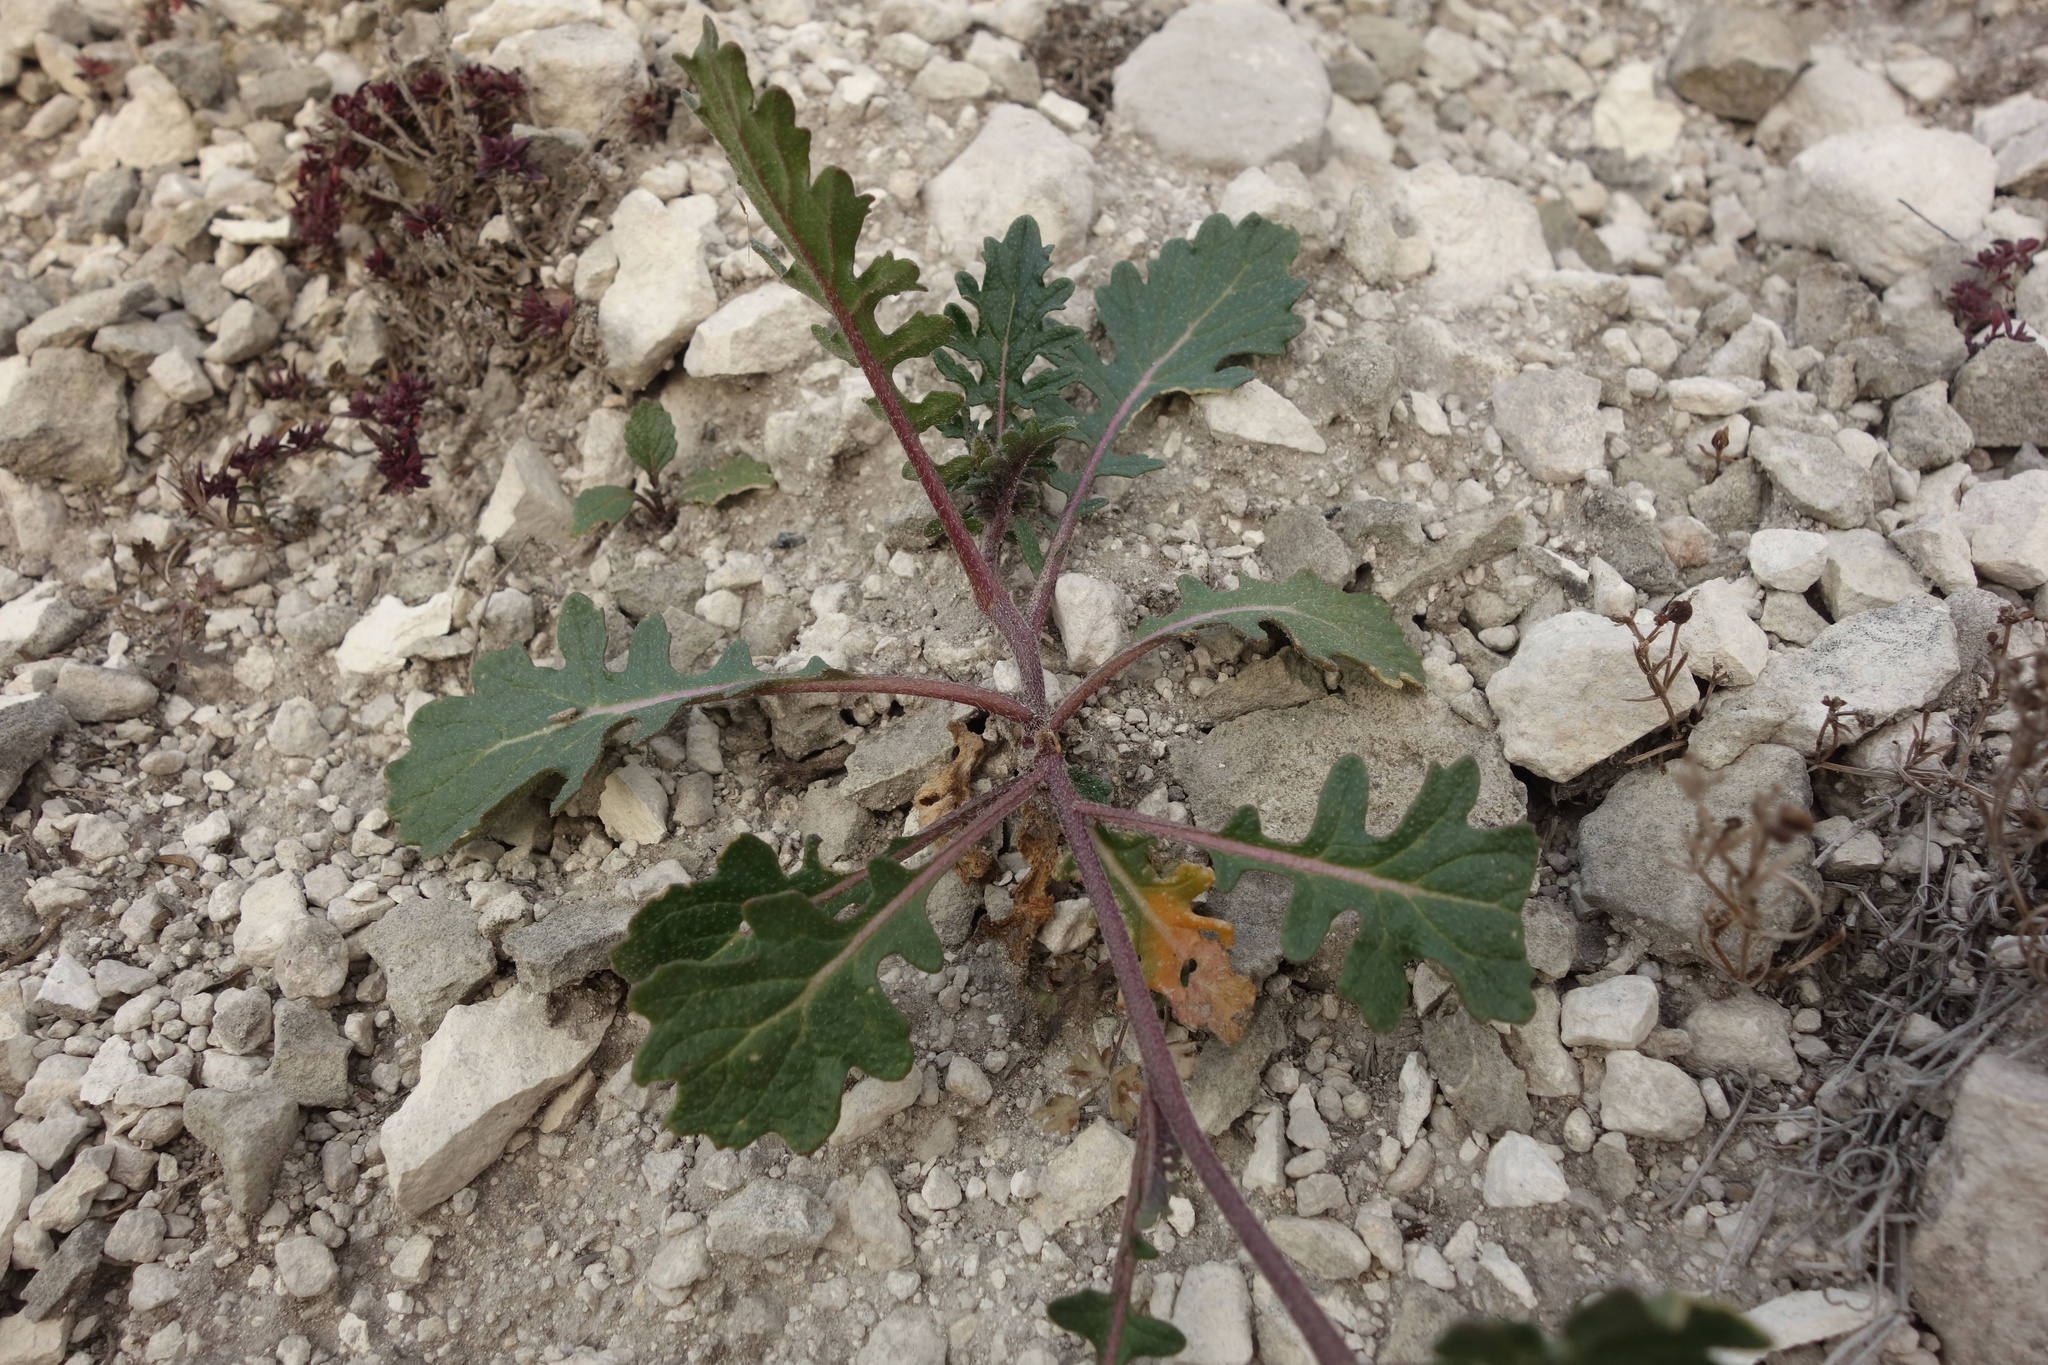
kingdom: Plantae
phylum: Tracheophyta
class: Magnoliopsida
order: Brassicales
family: Brassicaceae
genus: Erucastrum
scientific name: Erucastrum gallicum
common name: Hairy rocket
